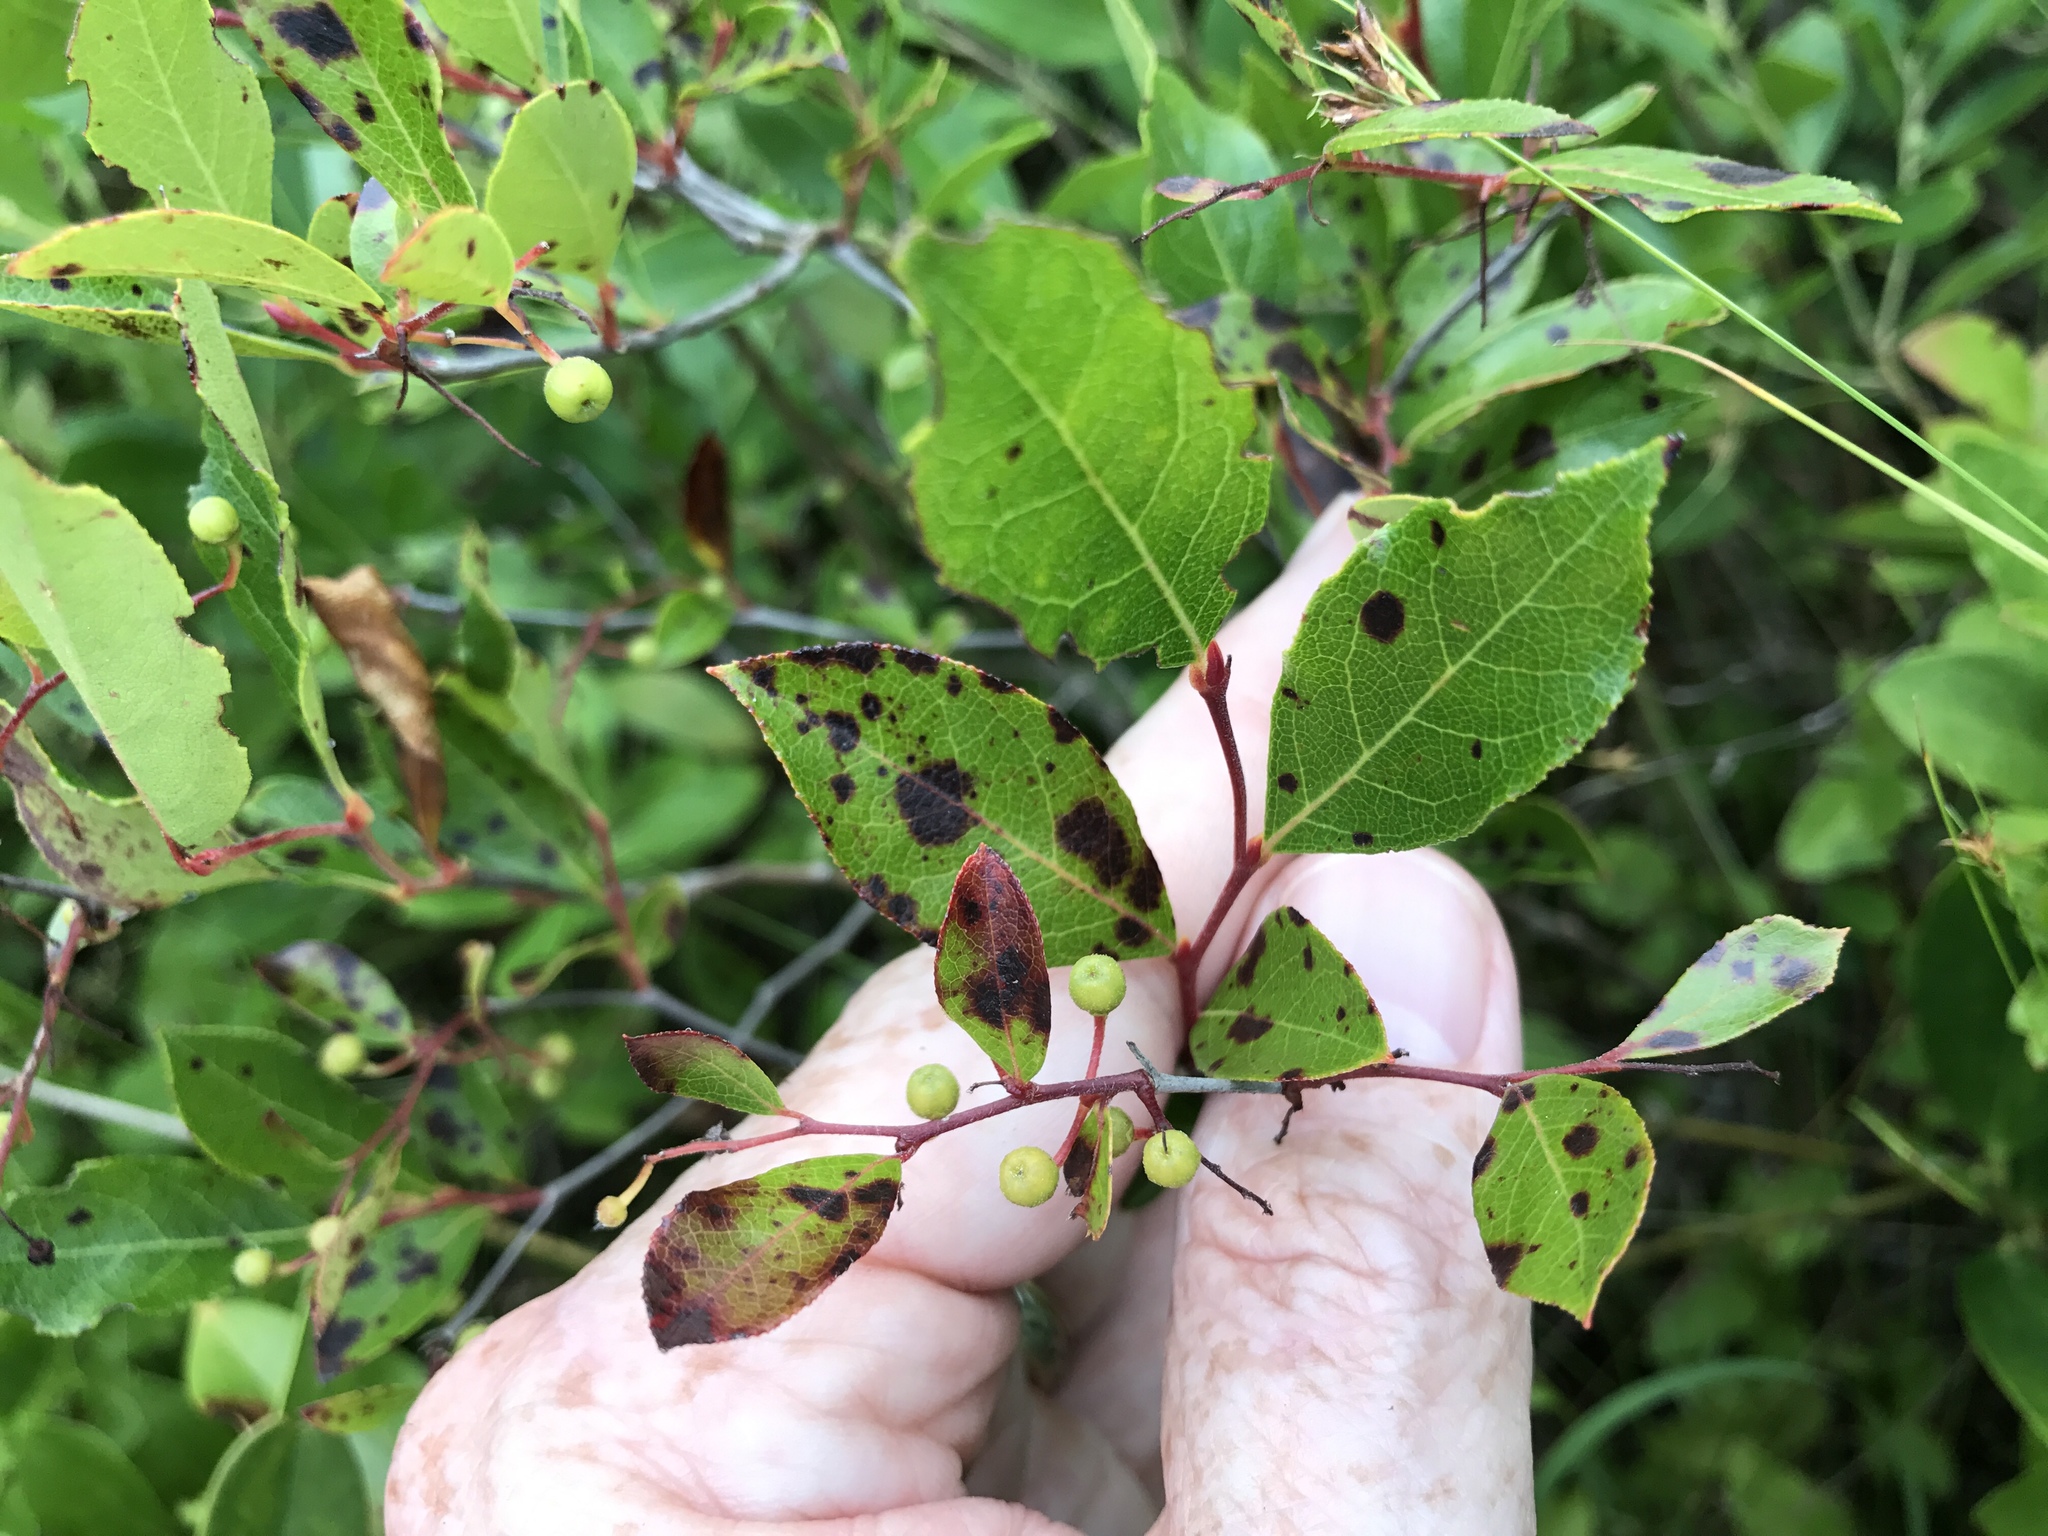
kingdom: Plantae
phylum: Tracheophyta
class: Magnoliopsida
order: Ericales
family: Ericaceae
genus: Lyonia
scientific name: Lyonia ligustrina
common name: Maleberry
